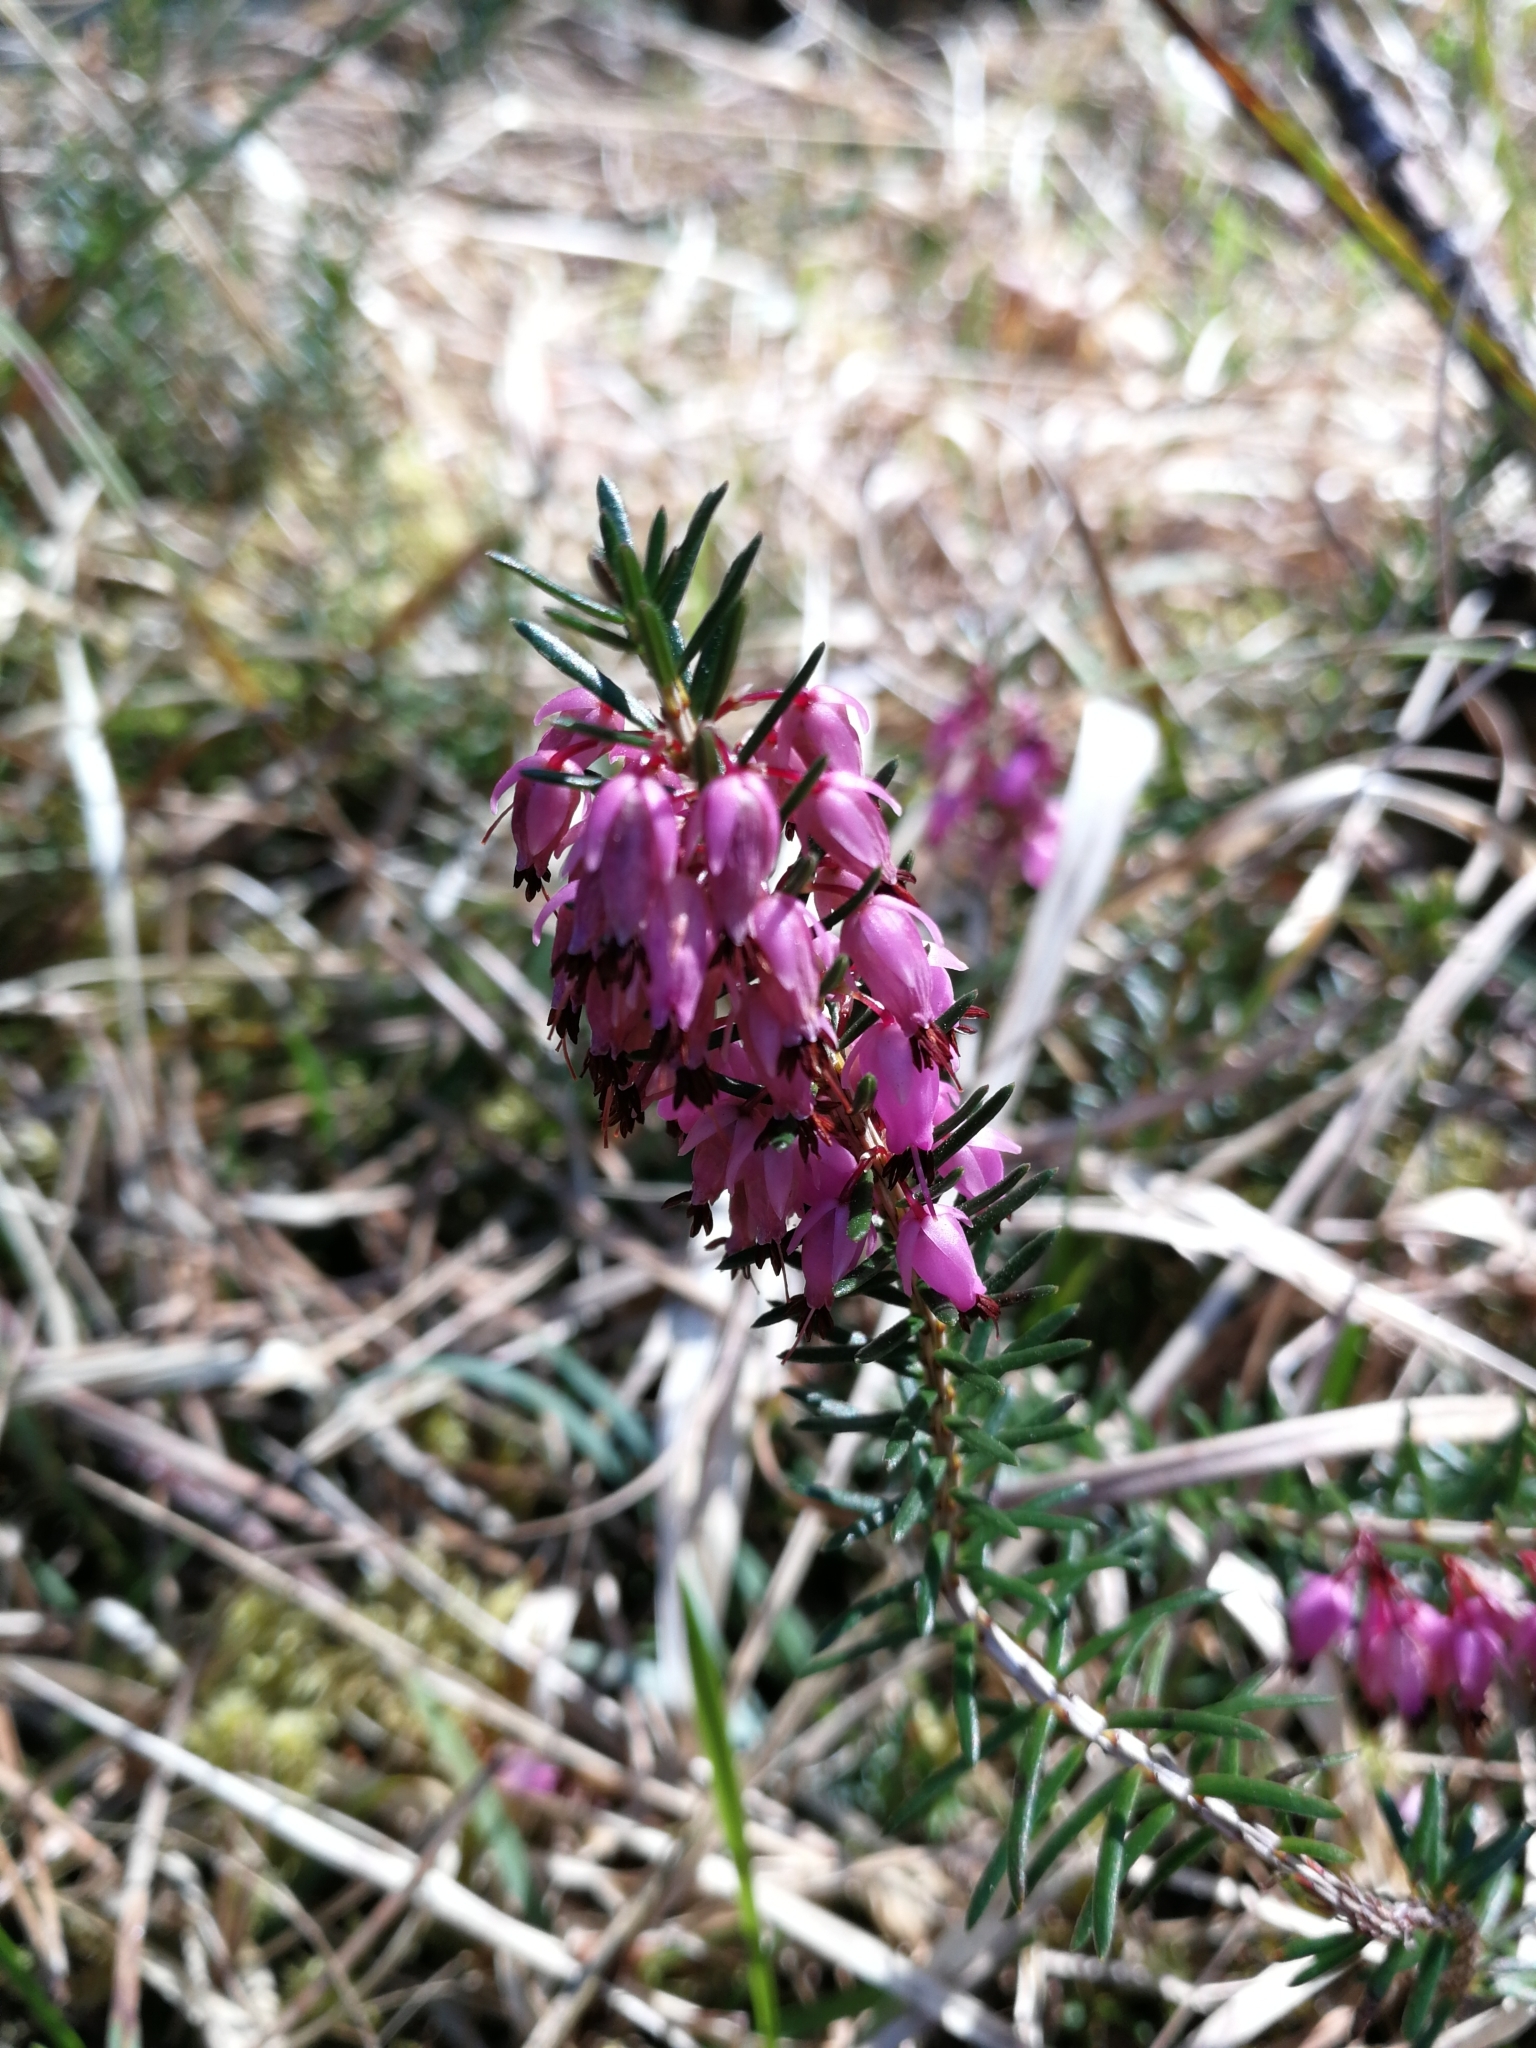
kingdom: Plantae
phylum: Tracheophyta
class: Magnoliopsida
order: Ericales
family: Ericaceae
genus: Erica
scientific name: Erica carnea
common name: Winter heath
